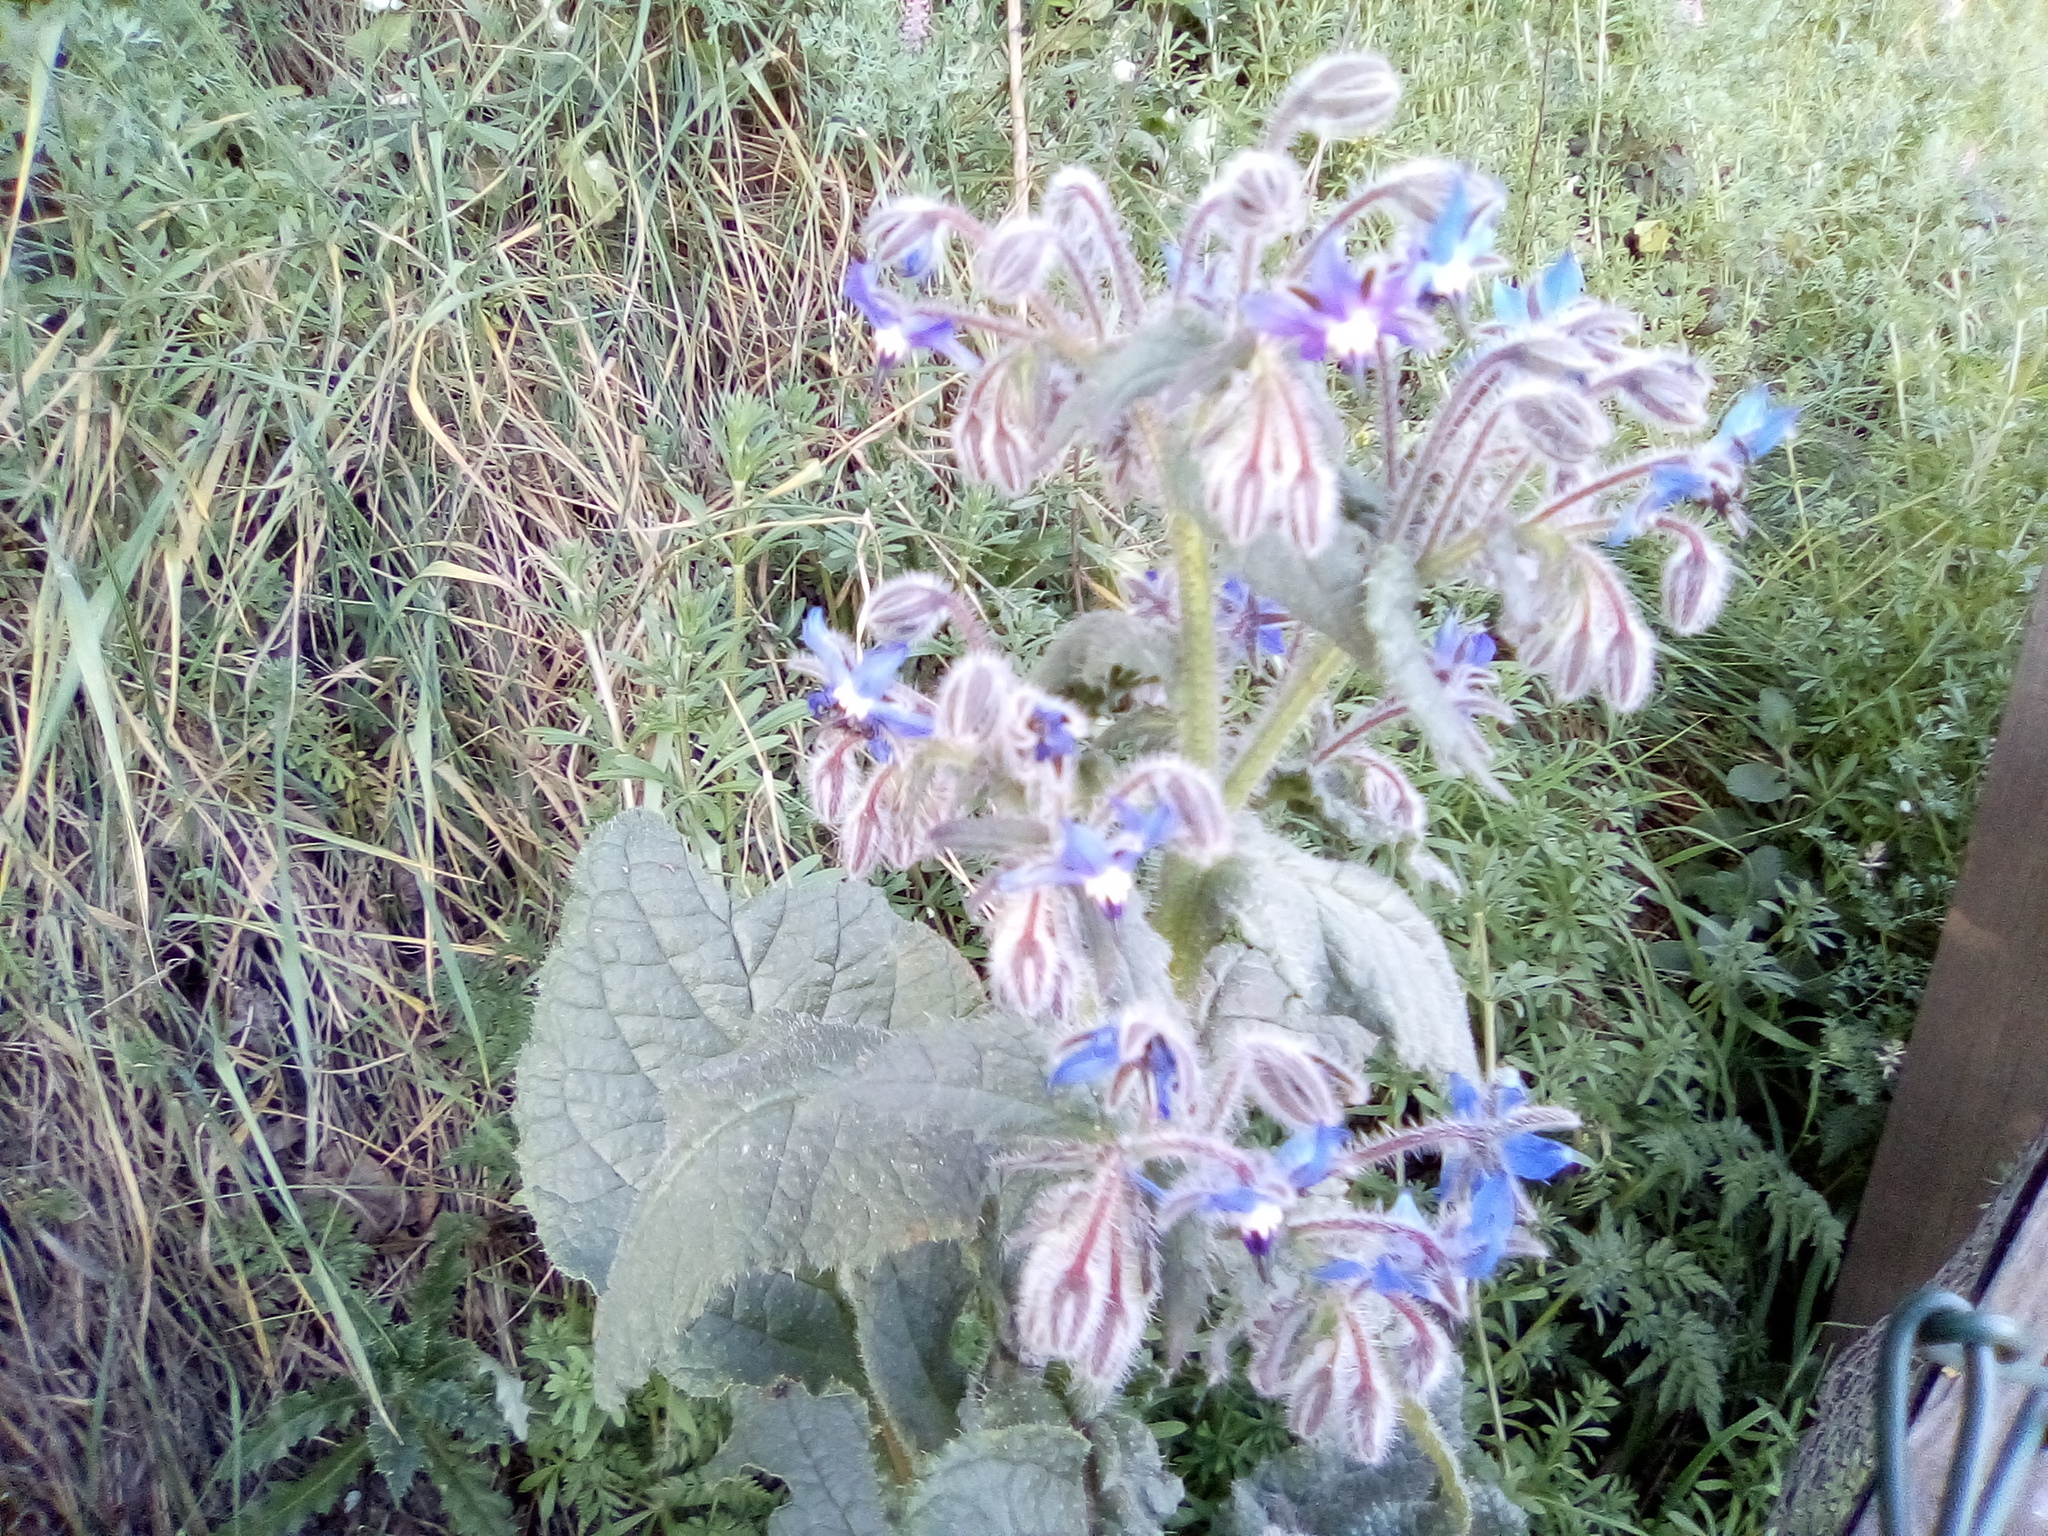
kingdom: Plantae
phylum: Tracheophyta
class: Magnoliopsida
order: Boraginales
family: Boraginaceae
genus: Borago
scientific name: Borago officinalis
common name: Borage
